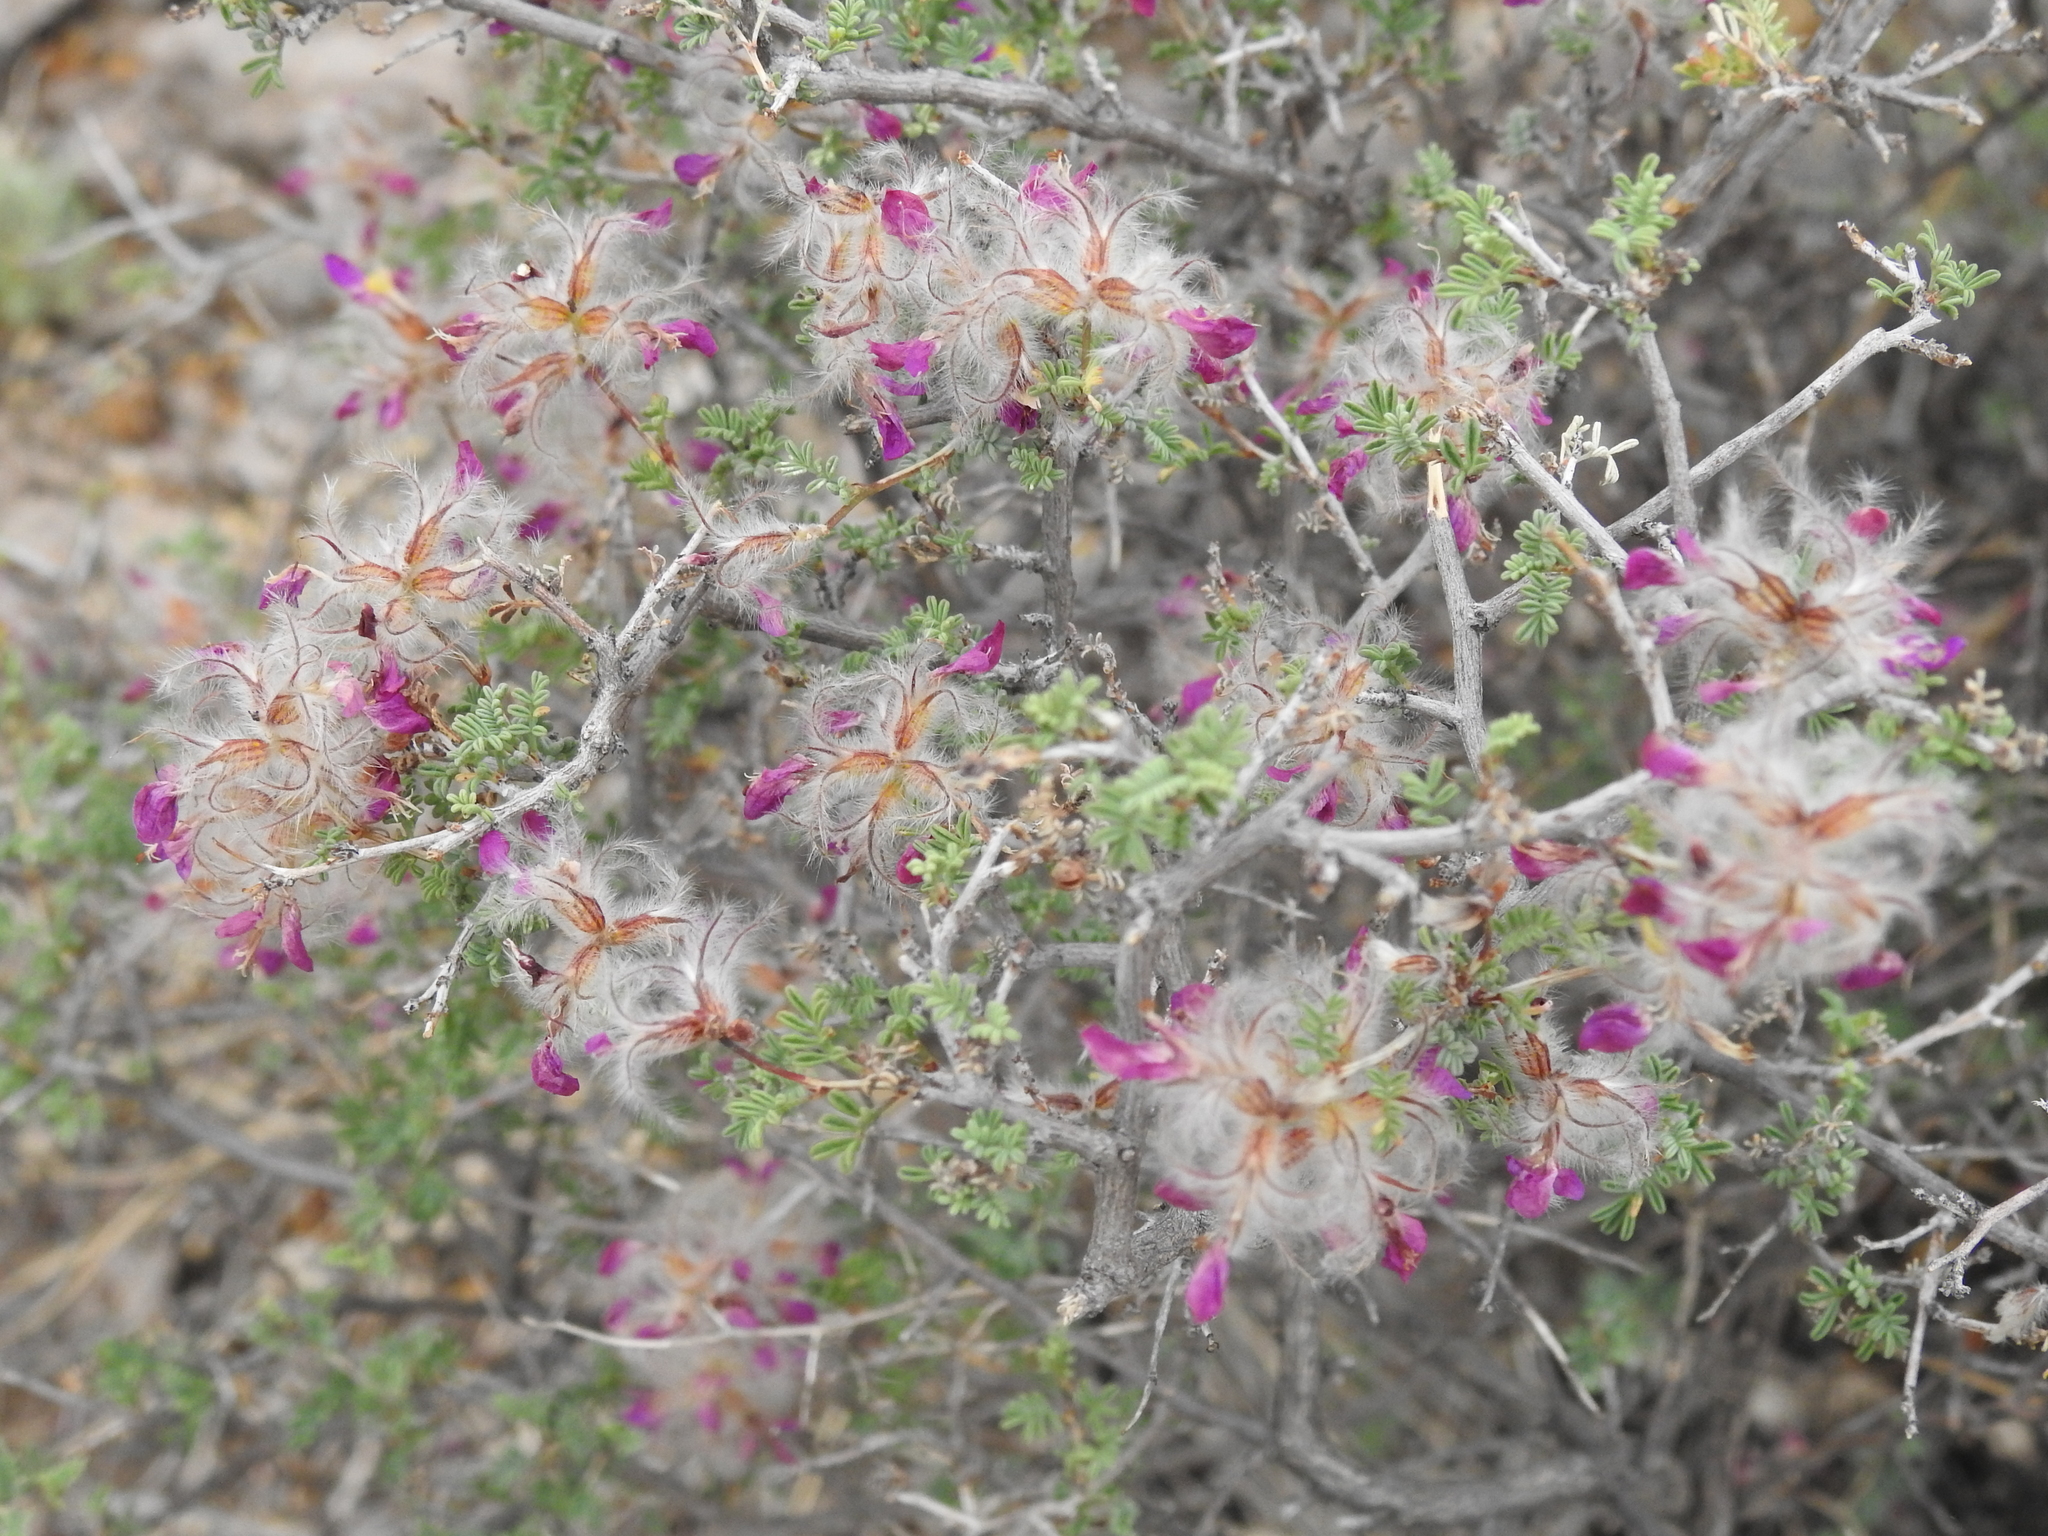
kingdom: Plantae
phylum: Tracheophyta
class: Magnoliopsida
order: Fabales
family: Fabaceae
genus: Dalea
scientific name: Dalea formosa
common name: Feather-plume dalea
